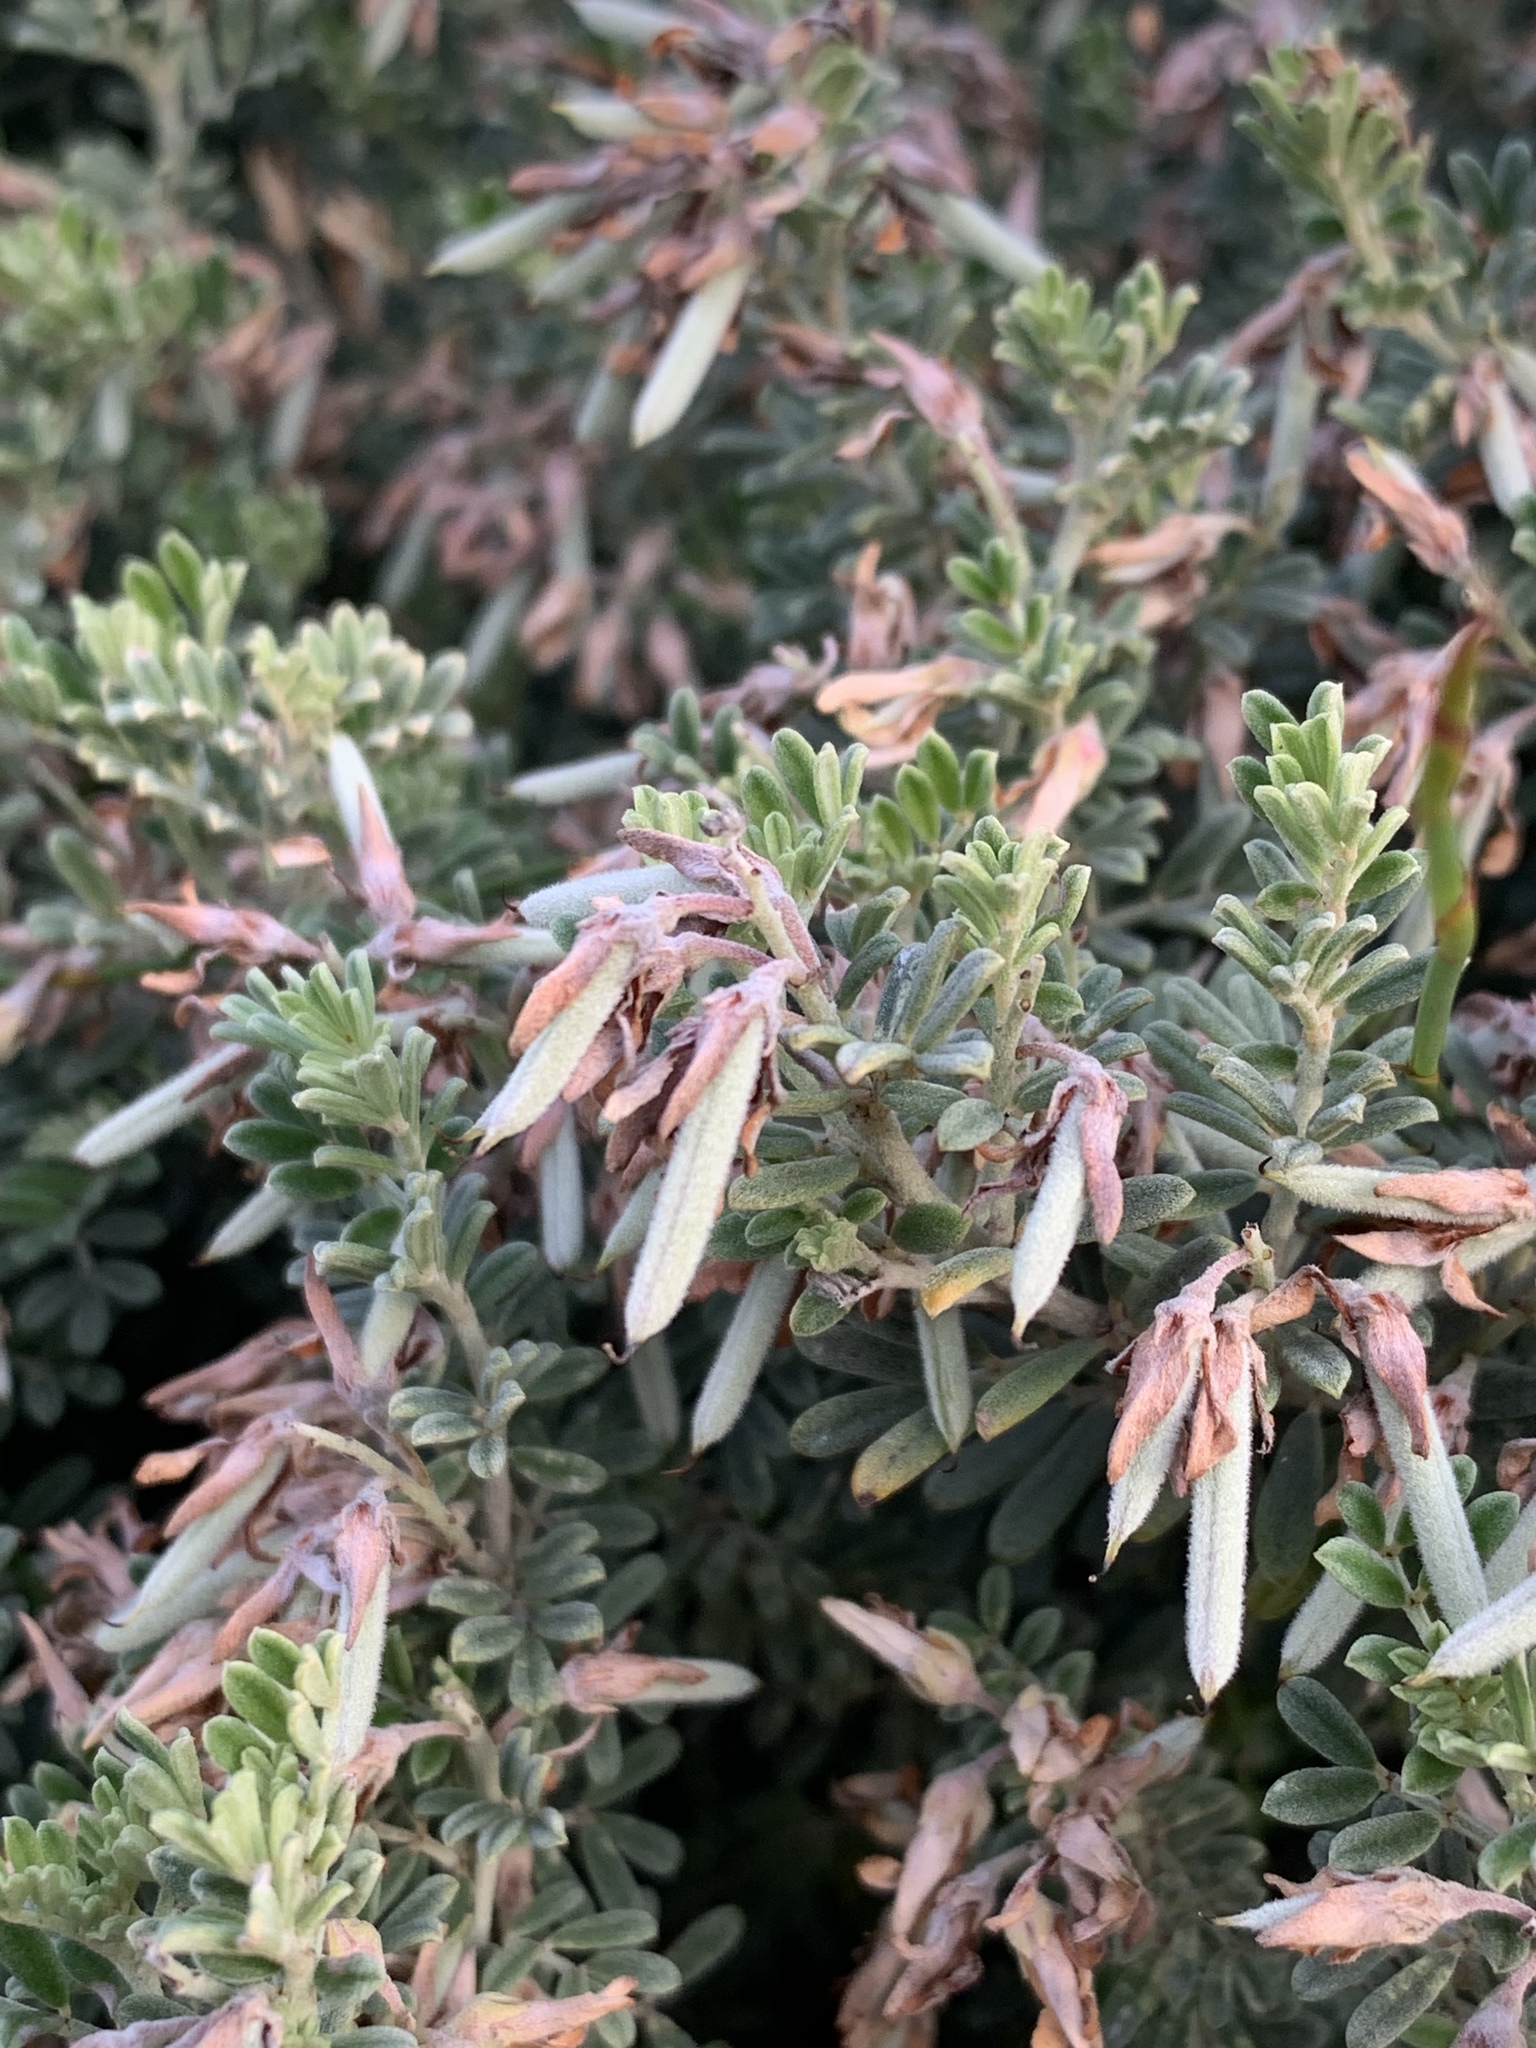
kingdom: Plantae
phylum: Tracheophyta
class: Magnoliopsida
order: Fabales
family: Fabaceae
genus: Indigofera
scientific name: Indigofera brachystachya
